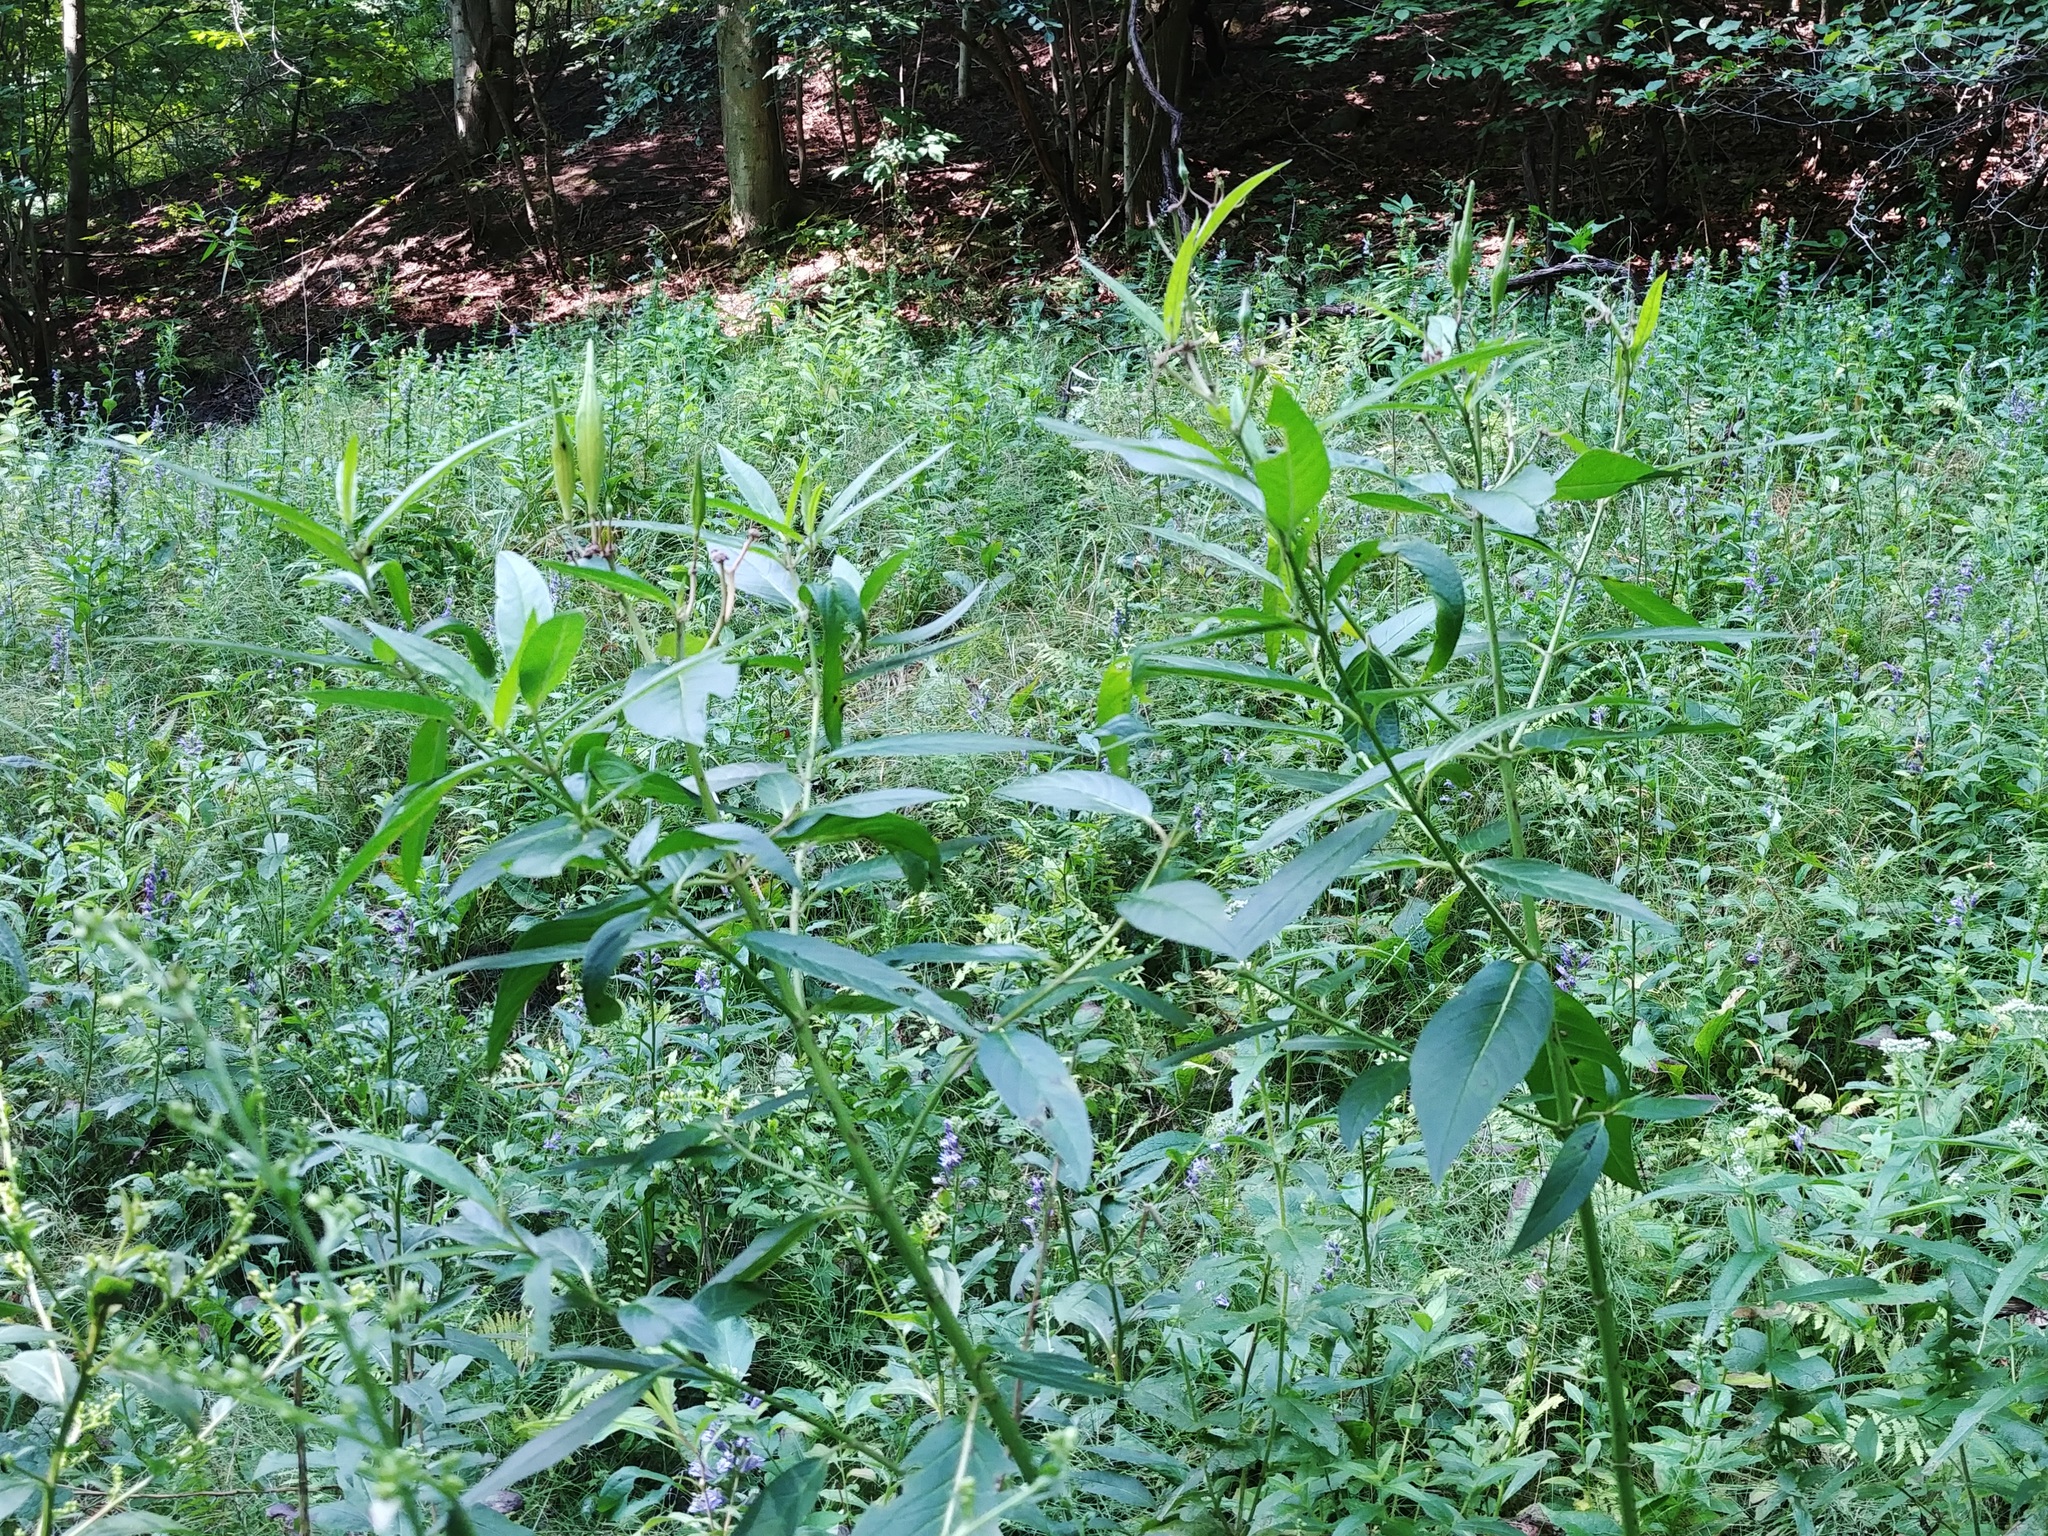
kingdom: Plantae
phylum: Tracheophyta
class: Magnoliopsida
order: Gentianales
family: Apocynaceae
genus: Asclepias
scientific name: Asclepias incarnata
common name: Swamp milkweed
